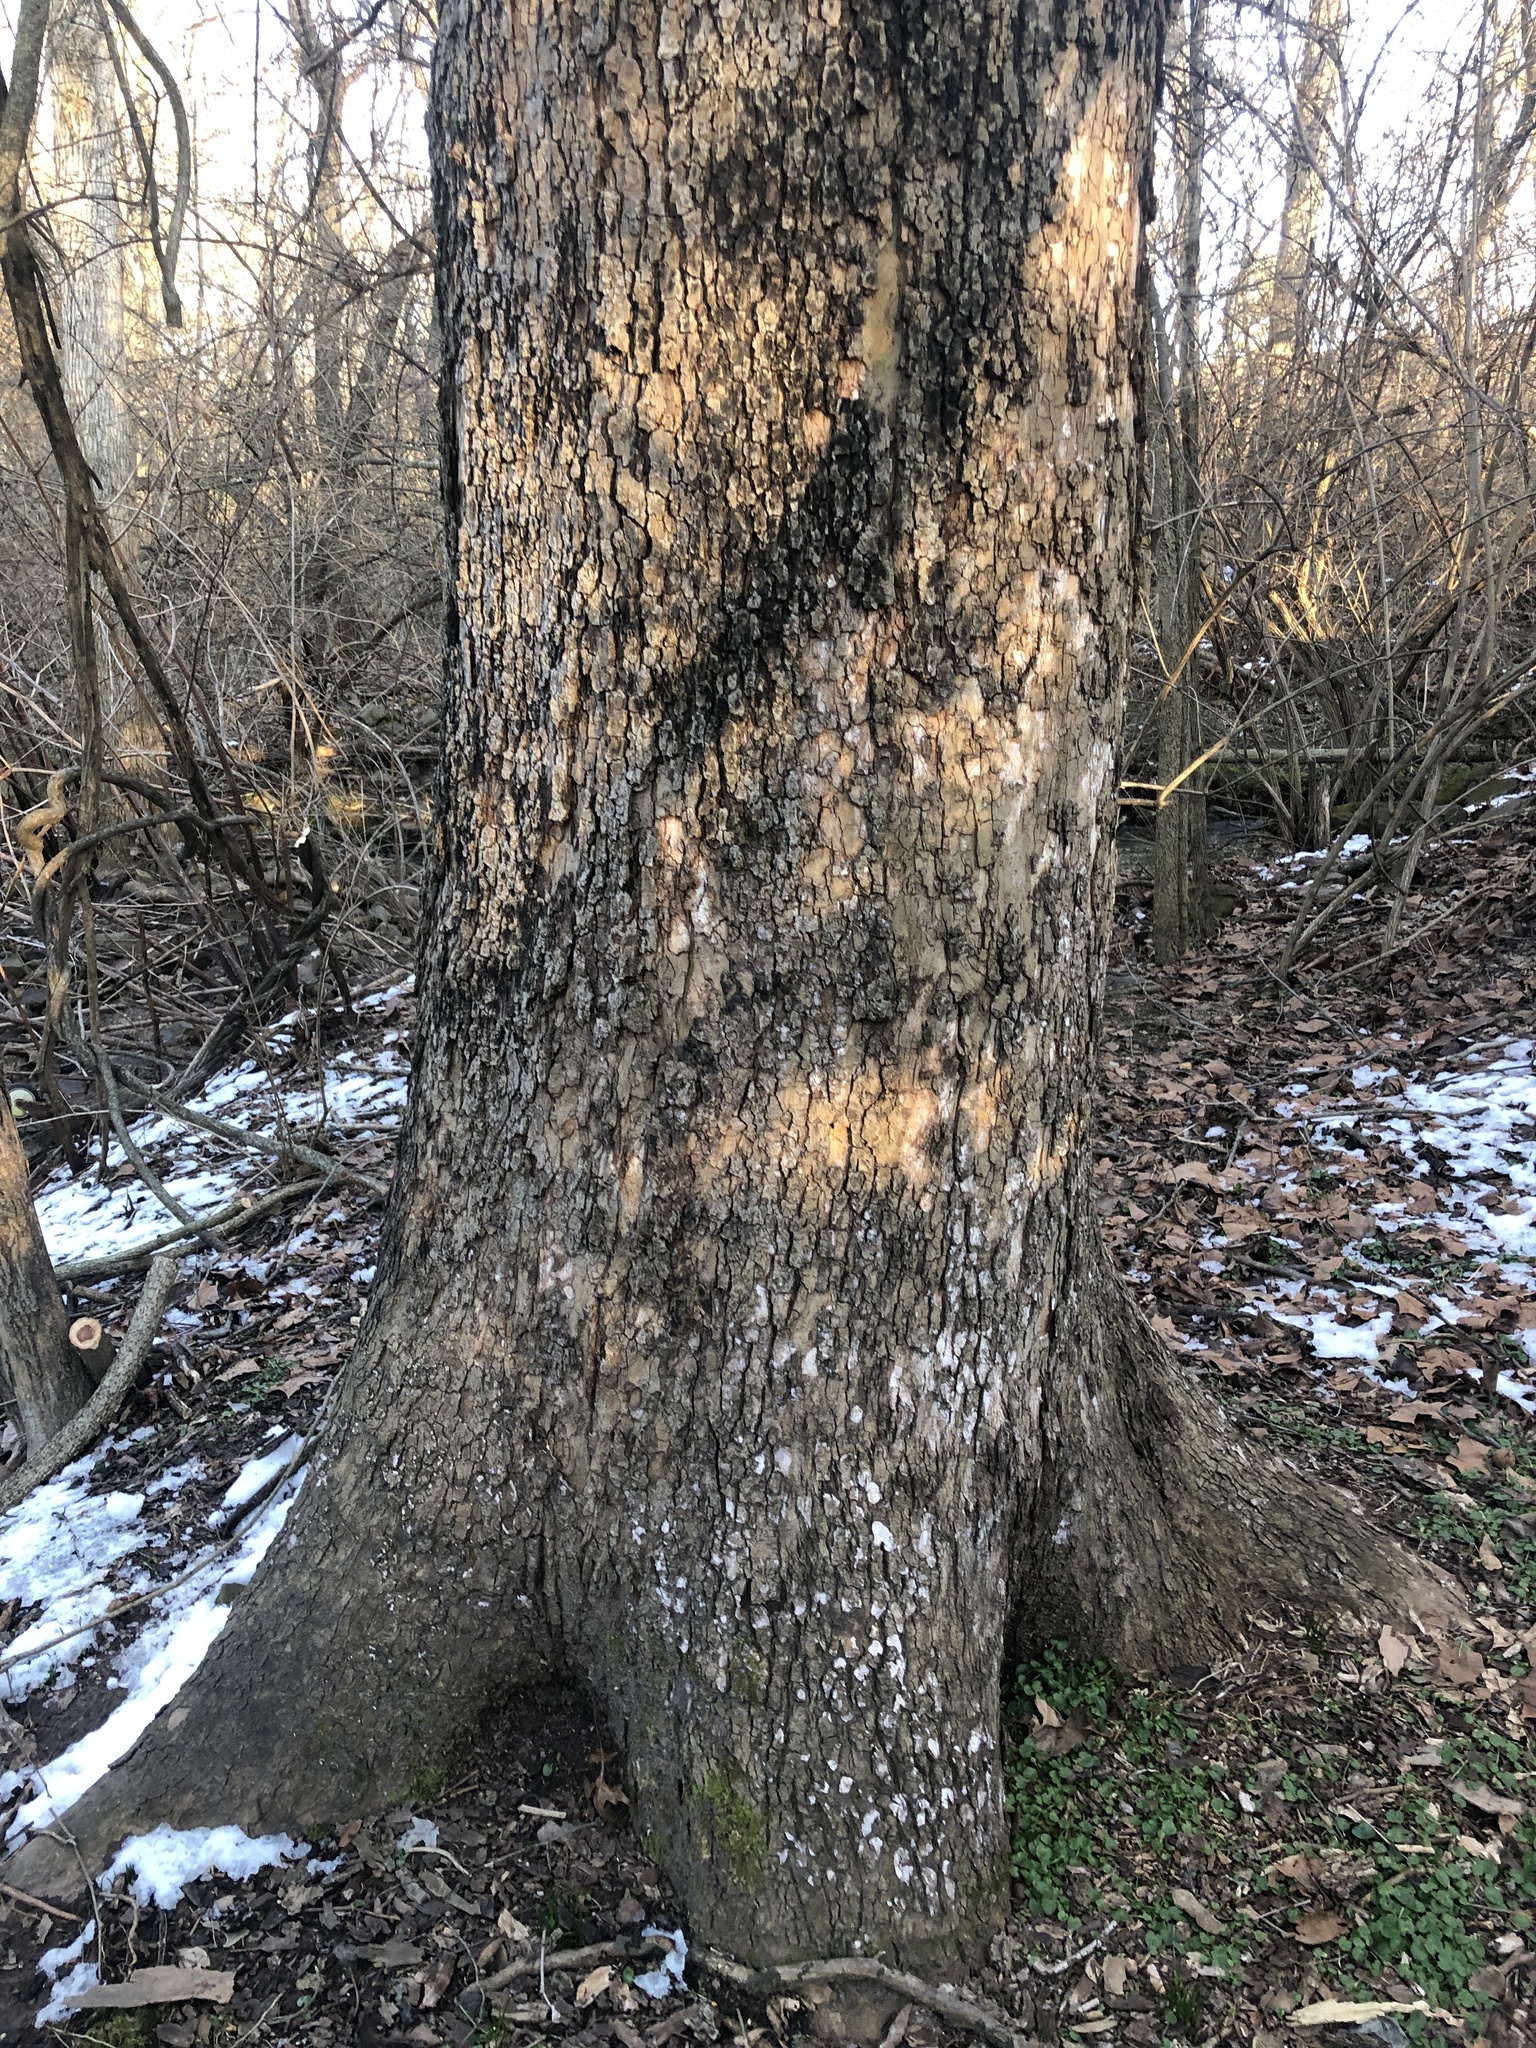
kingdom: Plantae
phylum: Tracheophyta
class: Magnoliopsida
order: Proteales
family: Platanaceae
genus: Platanus
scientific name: Platanus occidentalis
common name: American sycamore
